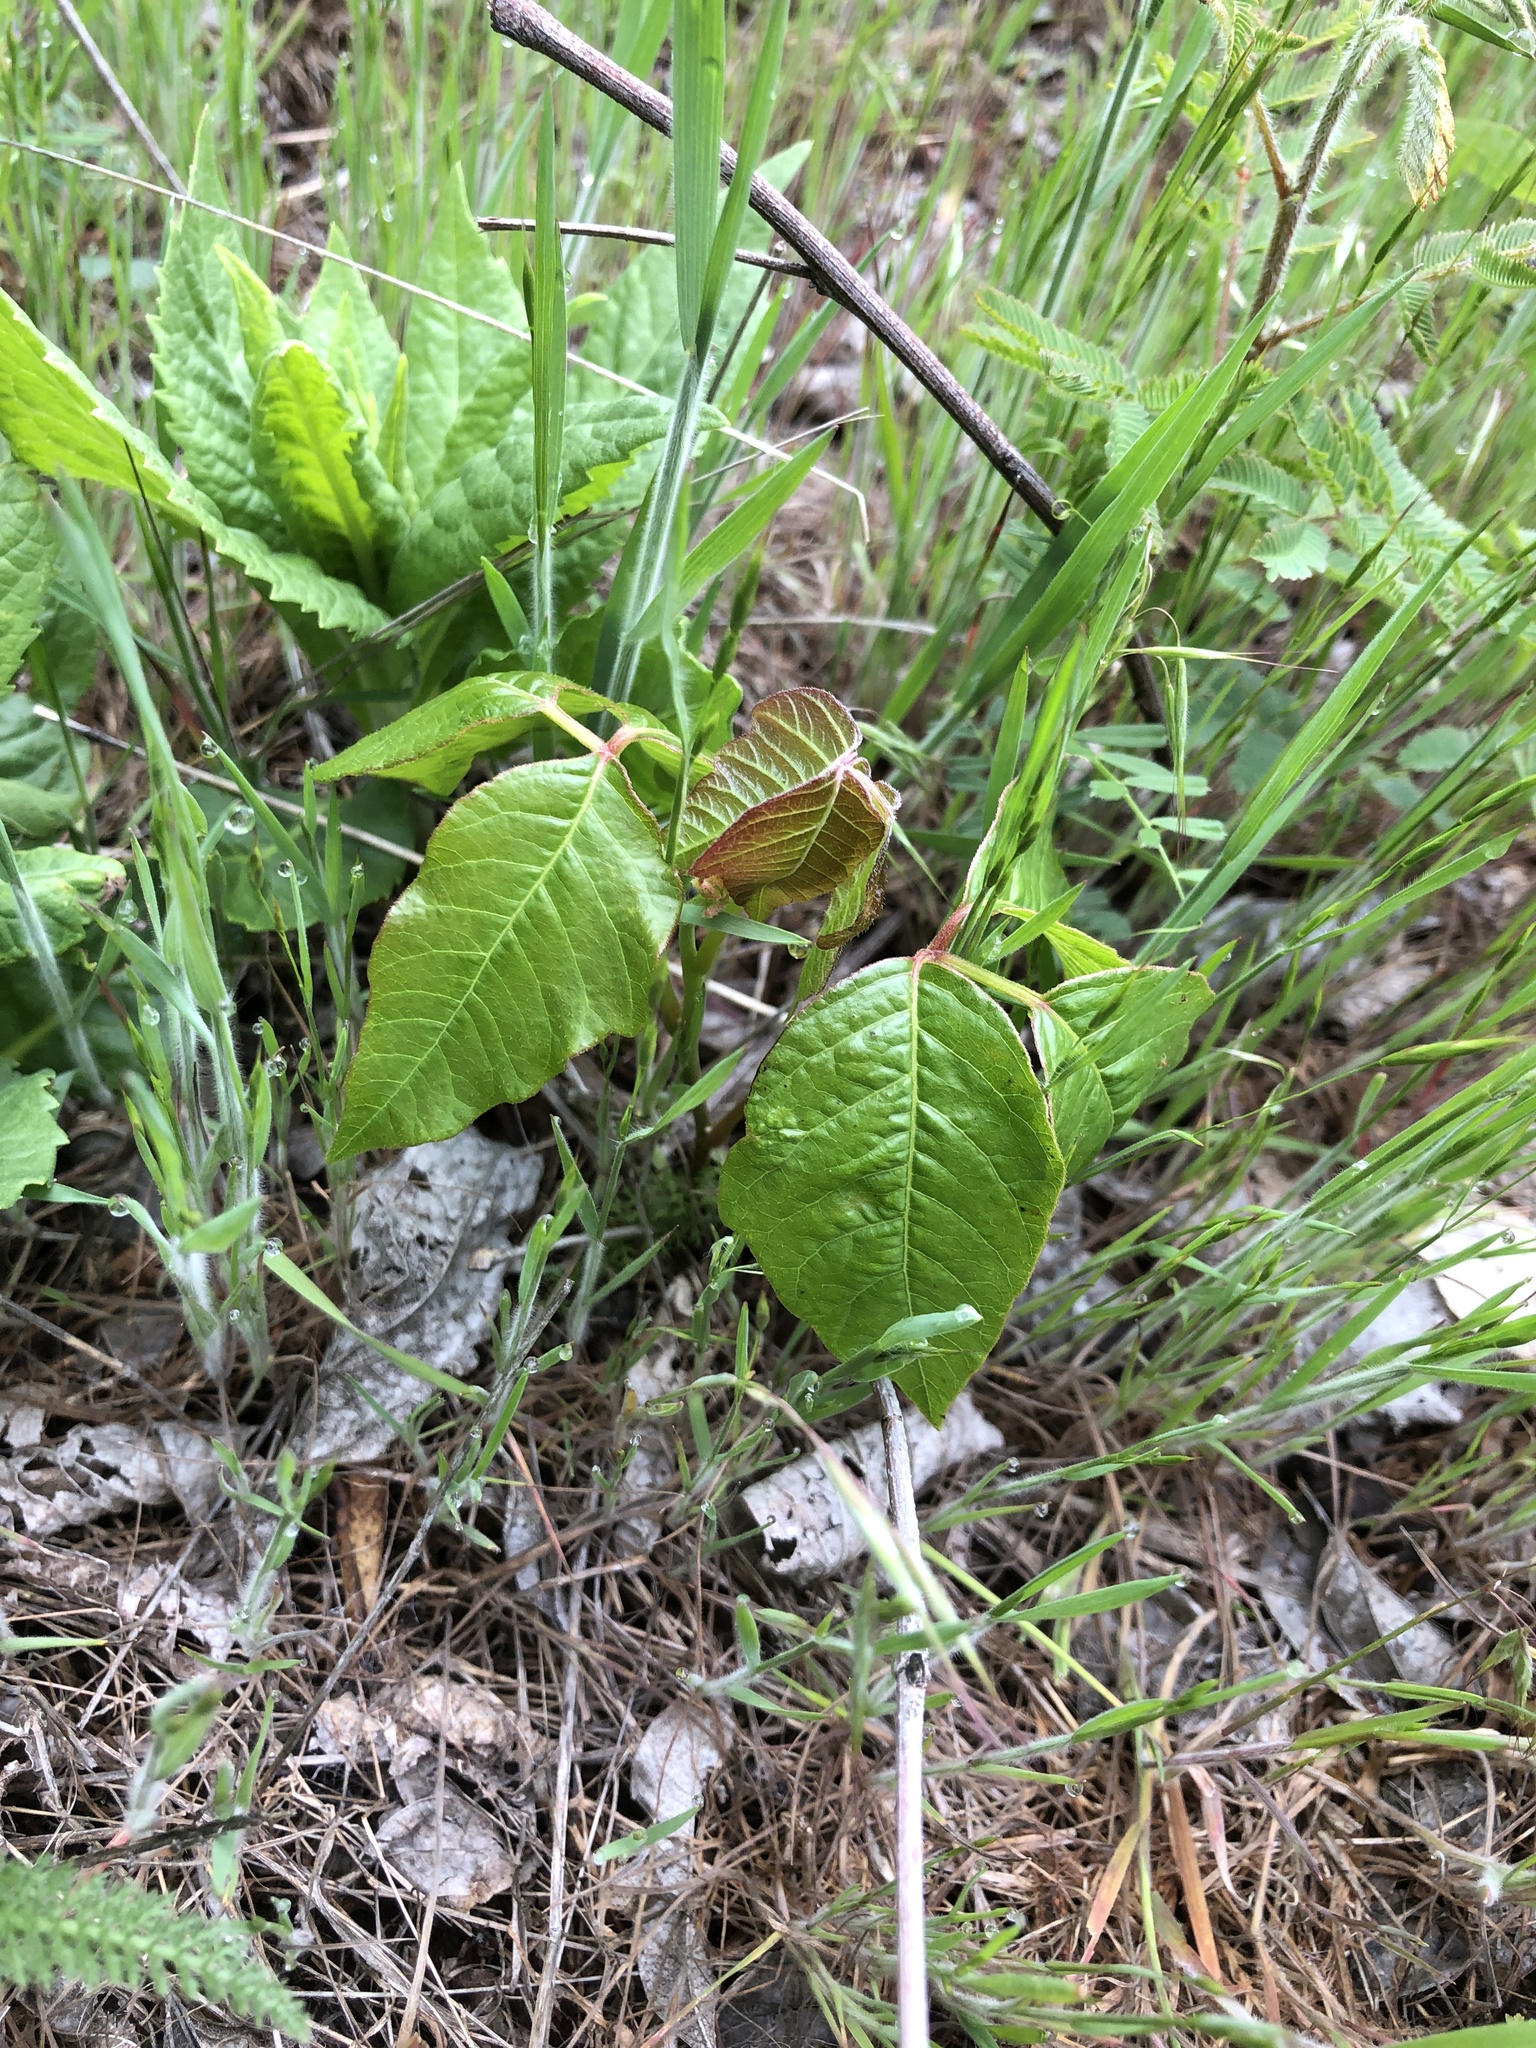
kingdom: Plantae
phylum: Tracheophyta
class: Magnoliopsida
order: Sapindales
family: Anacardiaceae
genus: Toxicodendron
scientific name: Toxicodendron radicans
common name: Poison ivy
